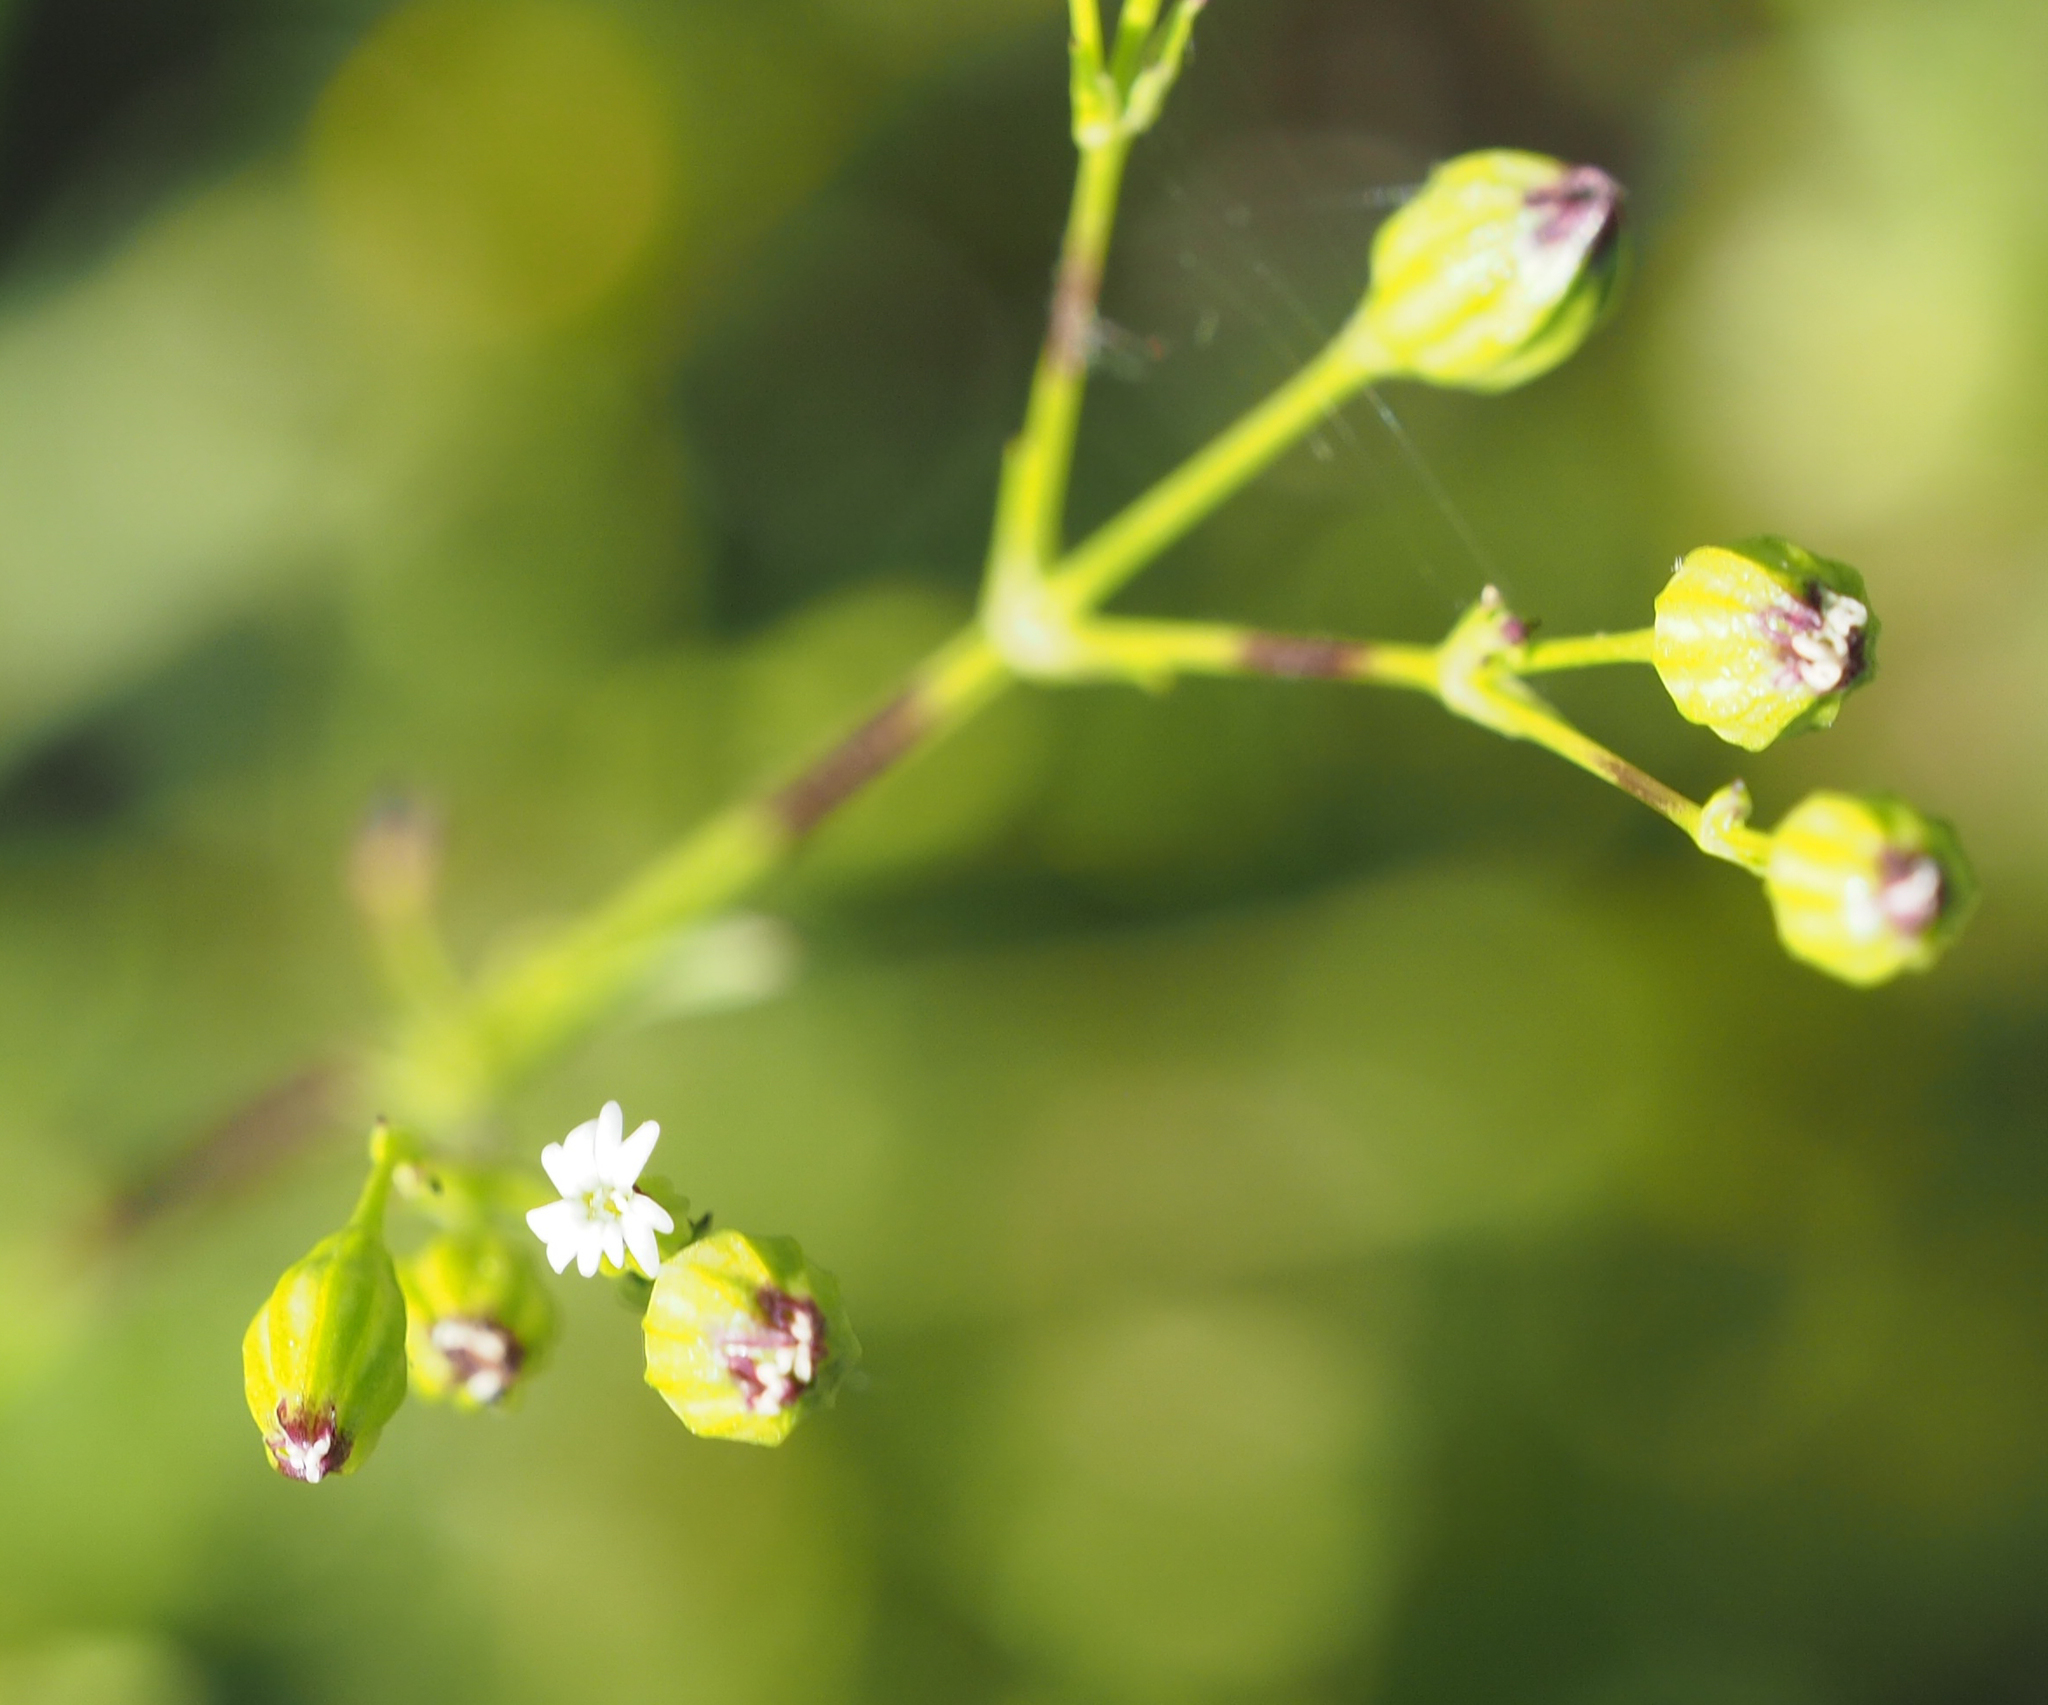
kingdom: Plantae
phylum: Tracheophyta
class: Magnoliopsida
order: Caryophyllales
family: Caryophyllaceae
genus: Silene
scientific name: Silene antirrhina
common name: Sleepy catchfly
